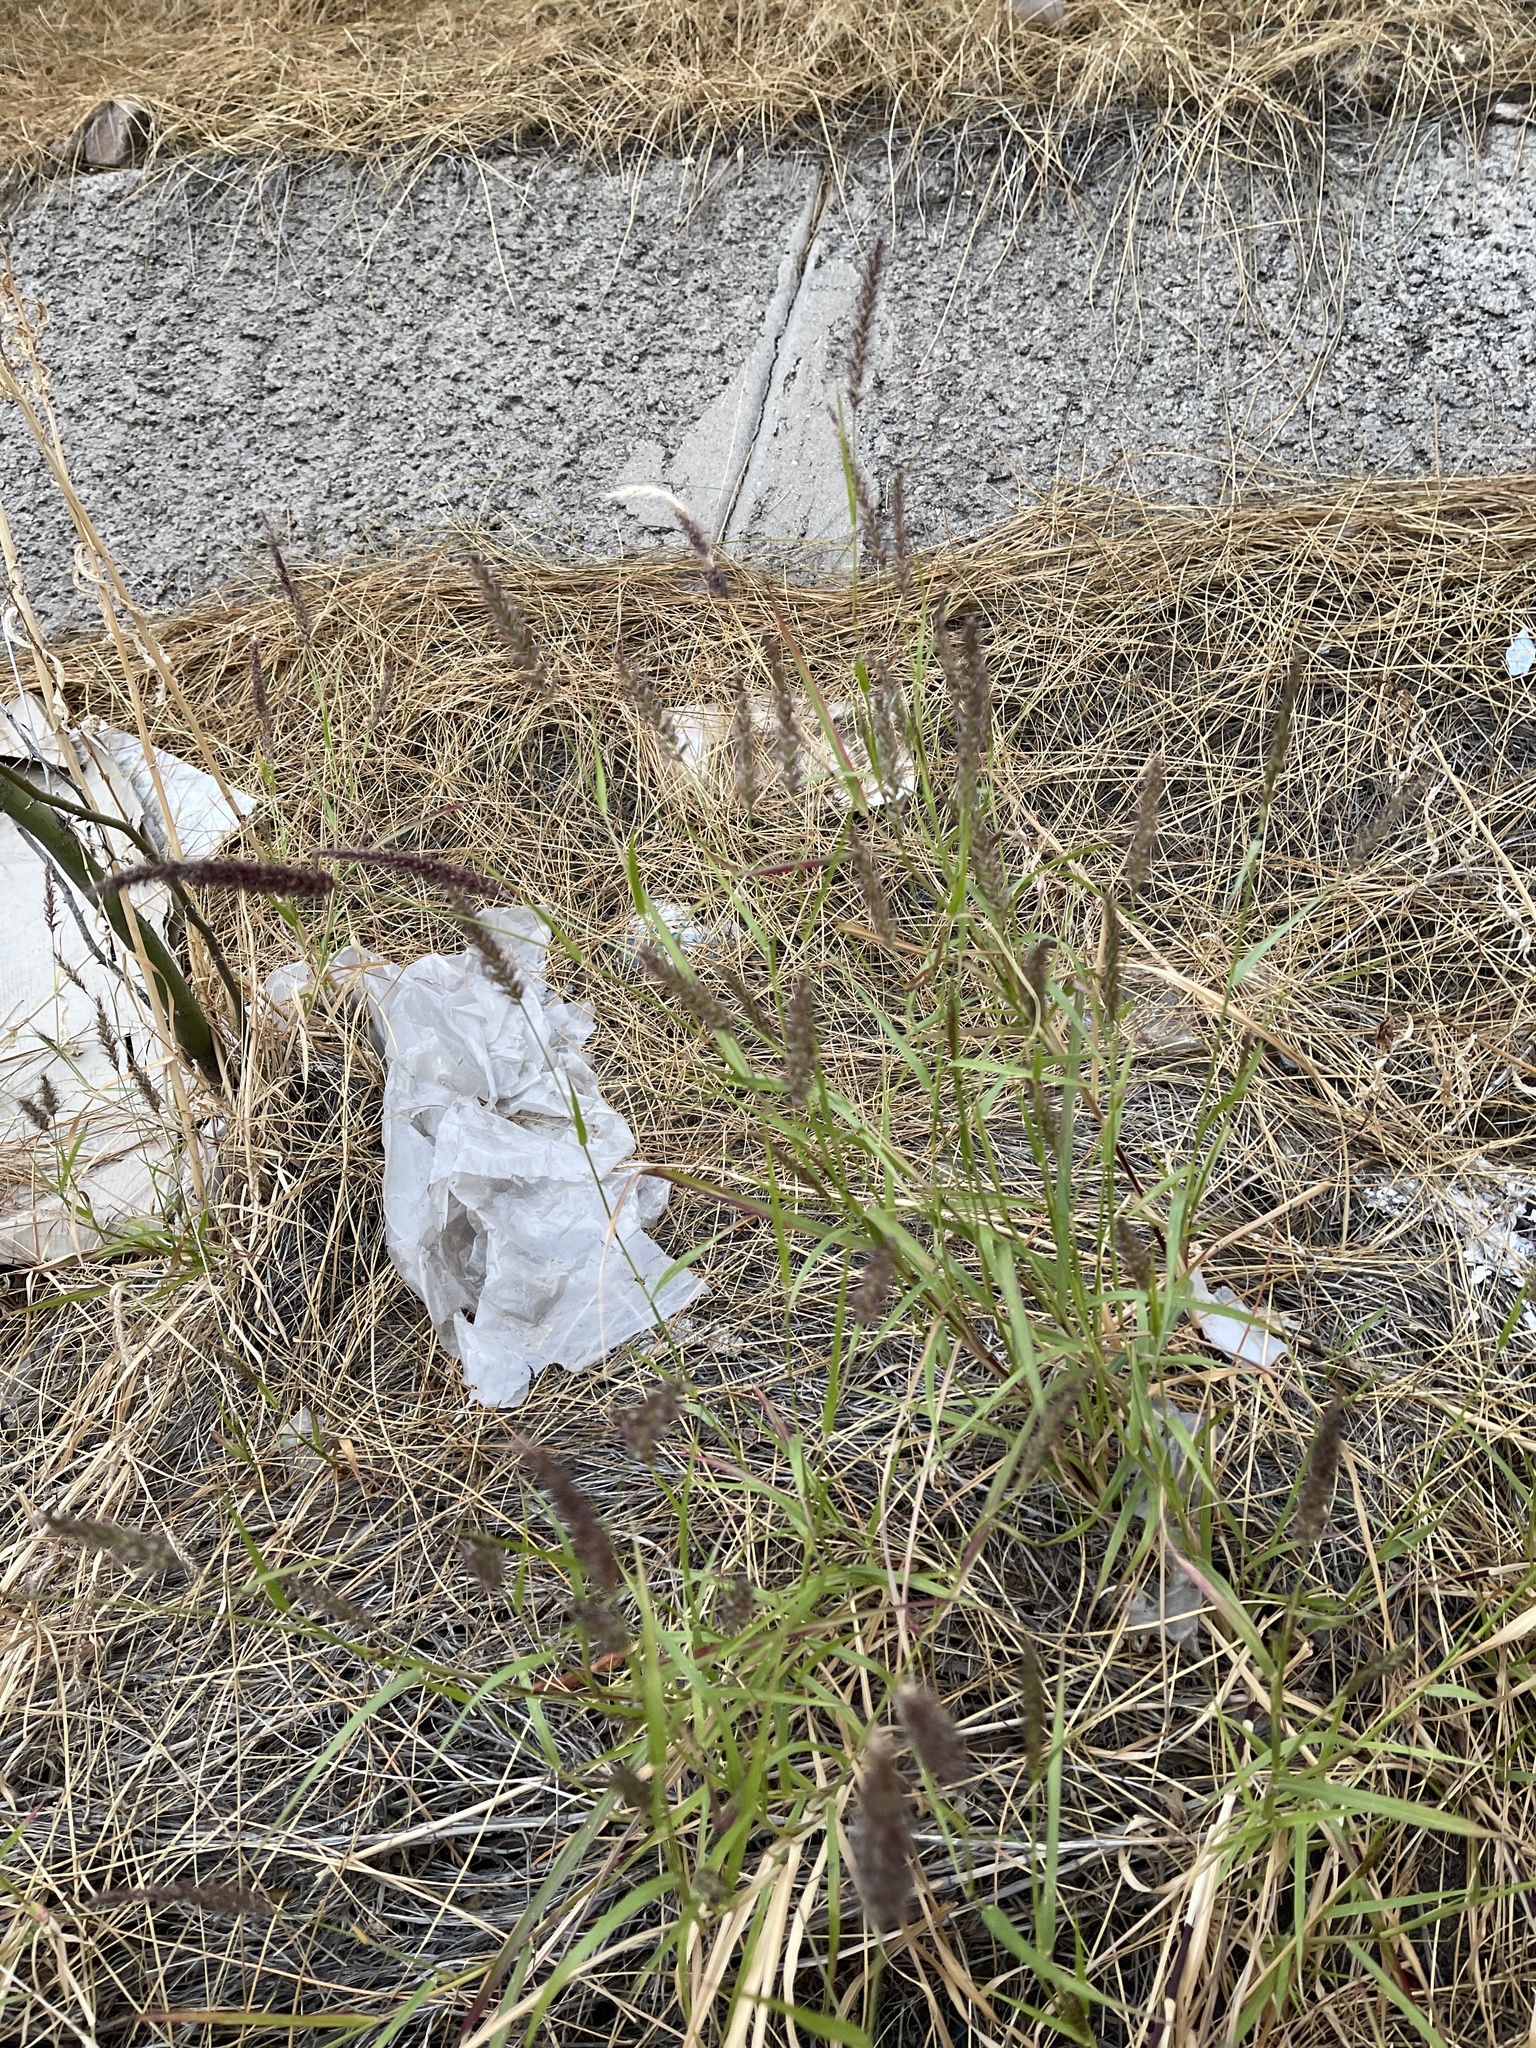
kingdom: Plantae
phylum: Tracheophyta
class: Liliopsida
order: Poales
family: Poaceae
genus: Cenchrus
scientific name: Cenchrus ciliaris
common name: Buffelgrass
